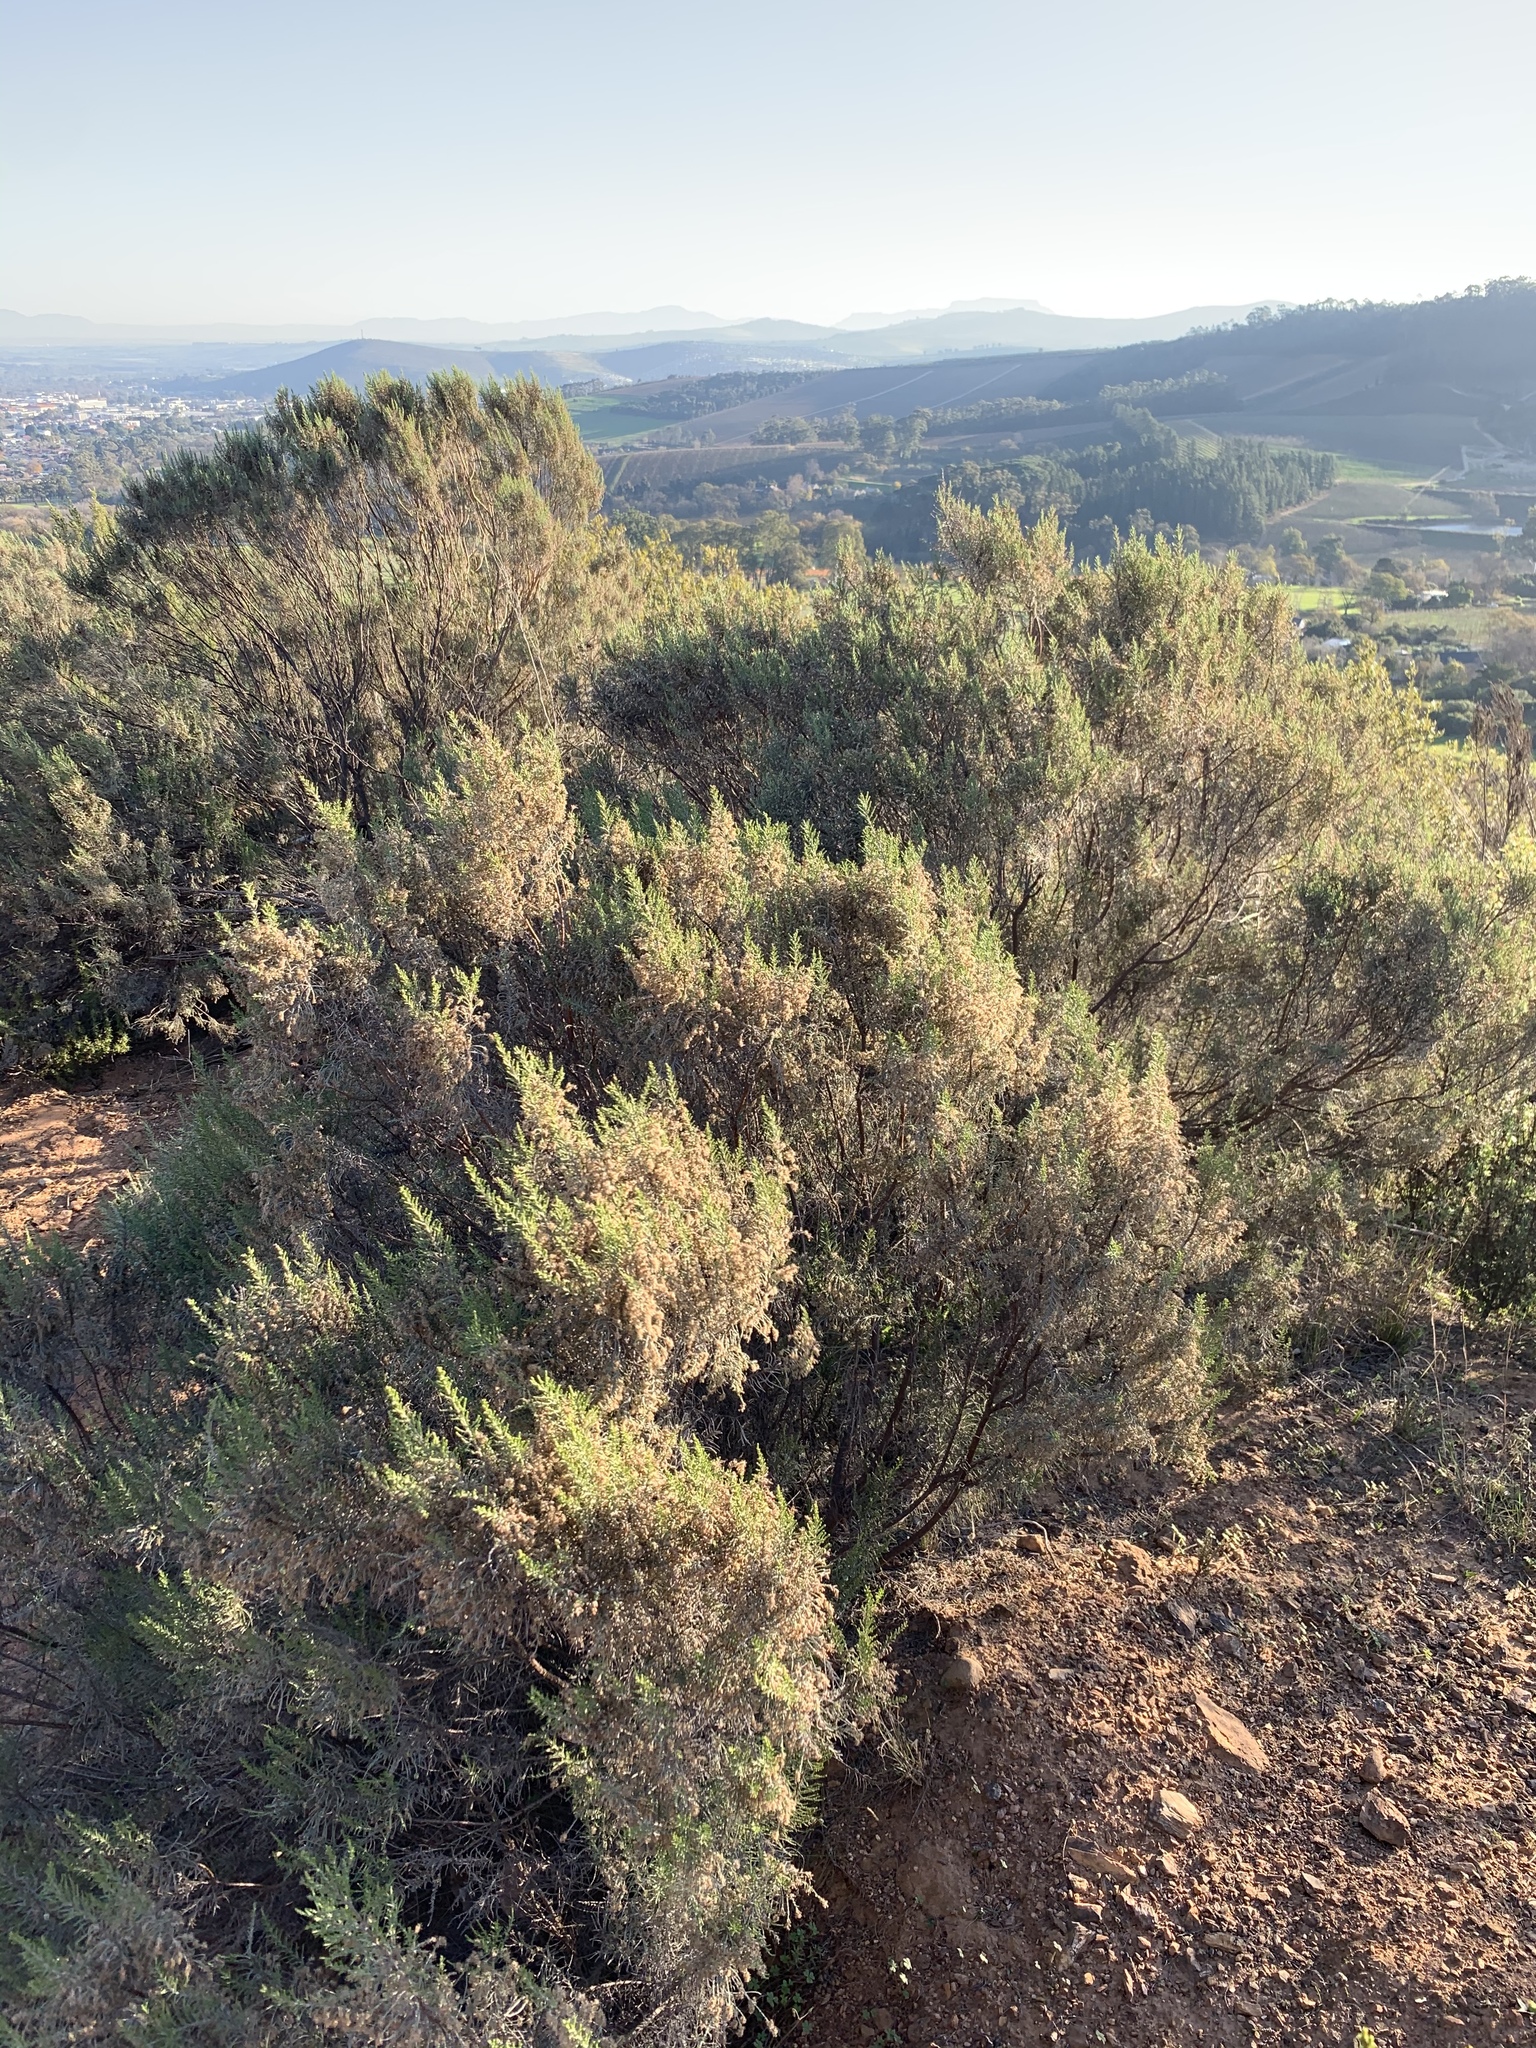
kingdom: Plantae
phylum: Tracheophyta
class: Magnoliopsida
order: Asterales
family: Asteraceae
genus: Dicerothamnus
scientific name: Dicerothamnus rhinocerotis
